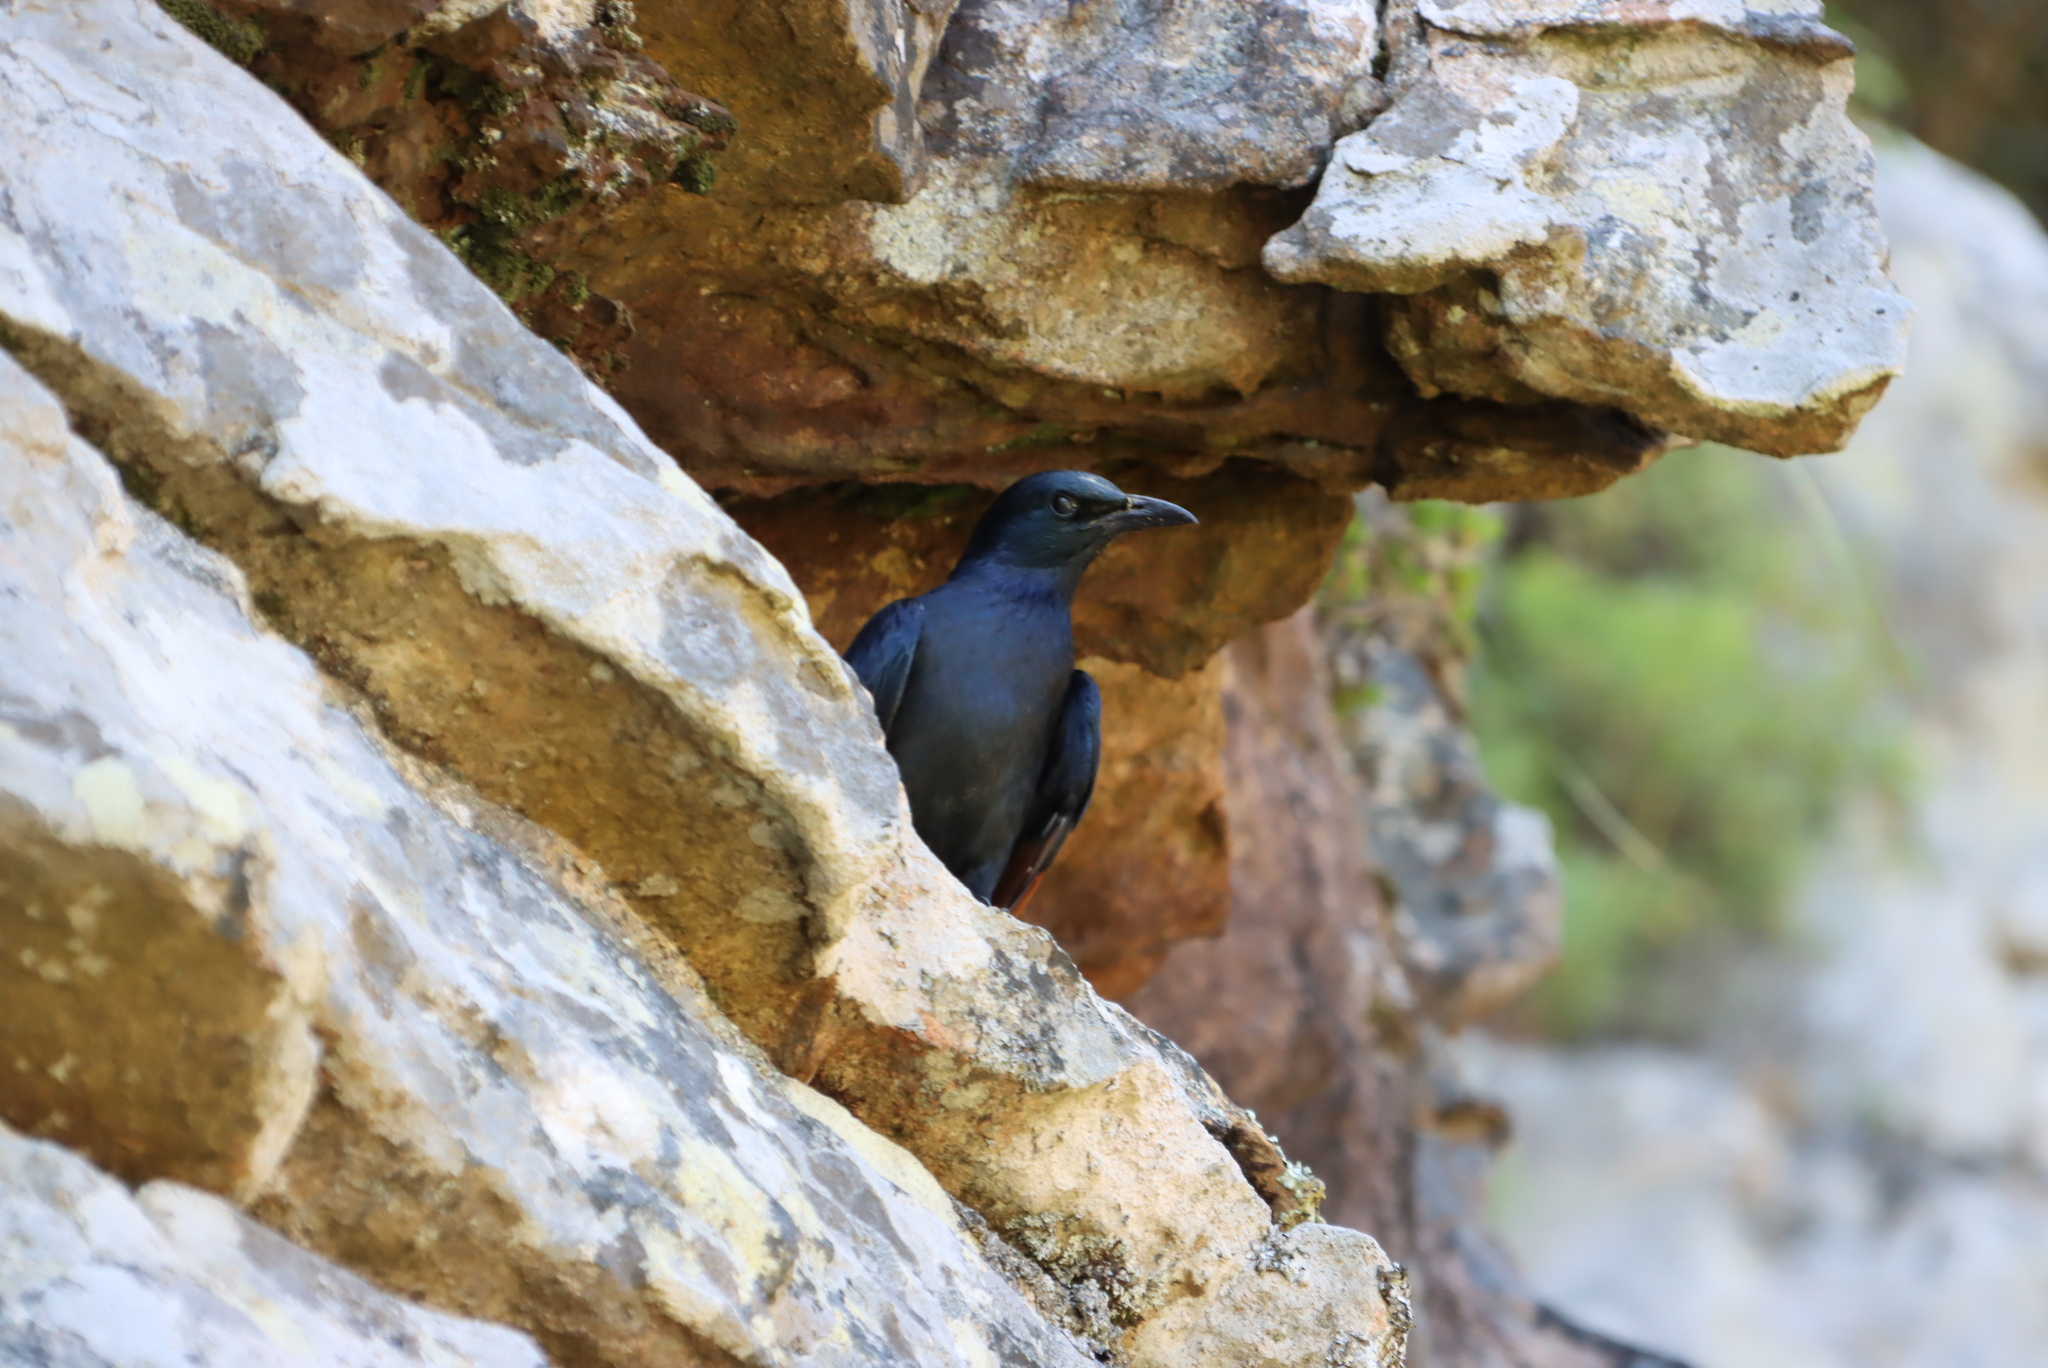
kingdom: Animalia
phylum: Chordata
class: Aves
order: Passeriformes
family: Sturnidae
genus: Onychognathus
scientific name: Onychognathus morio
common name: Red-winged starling
